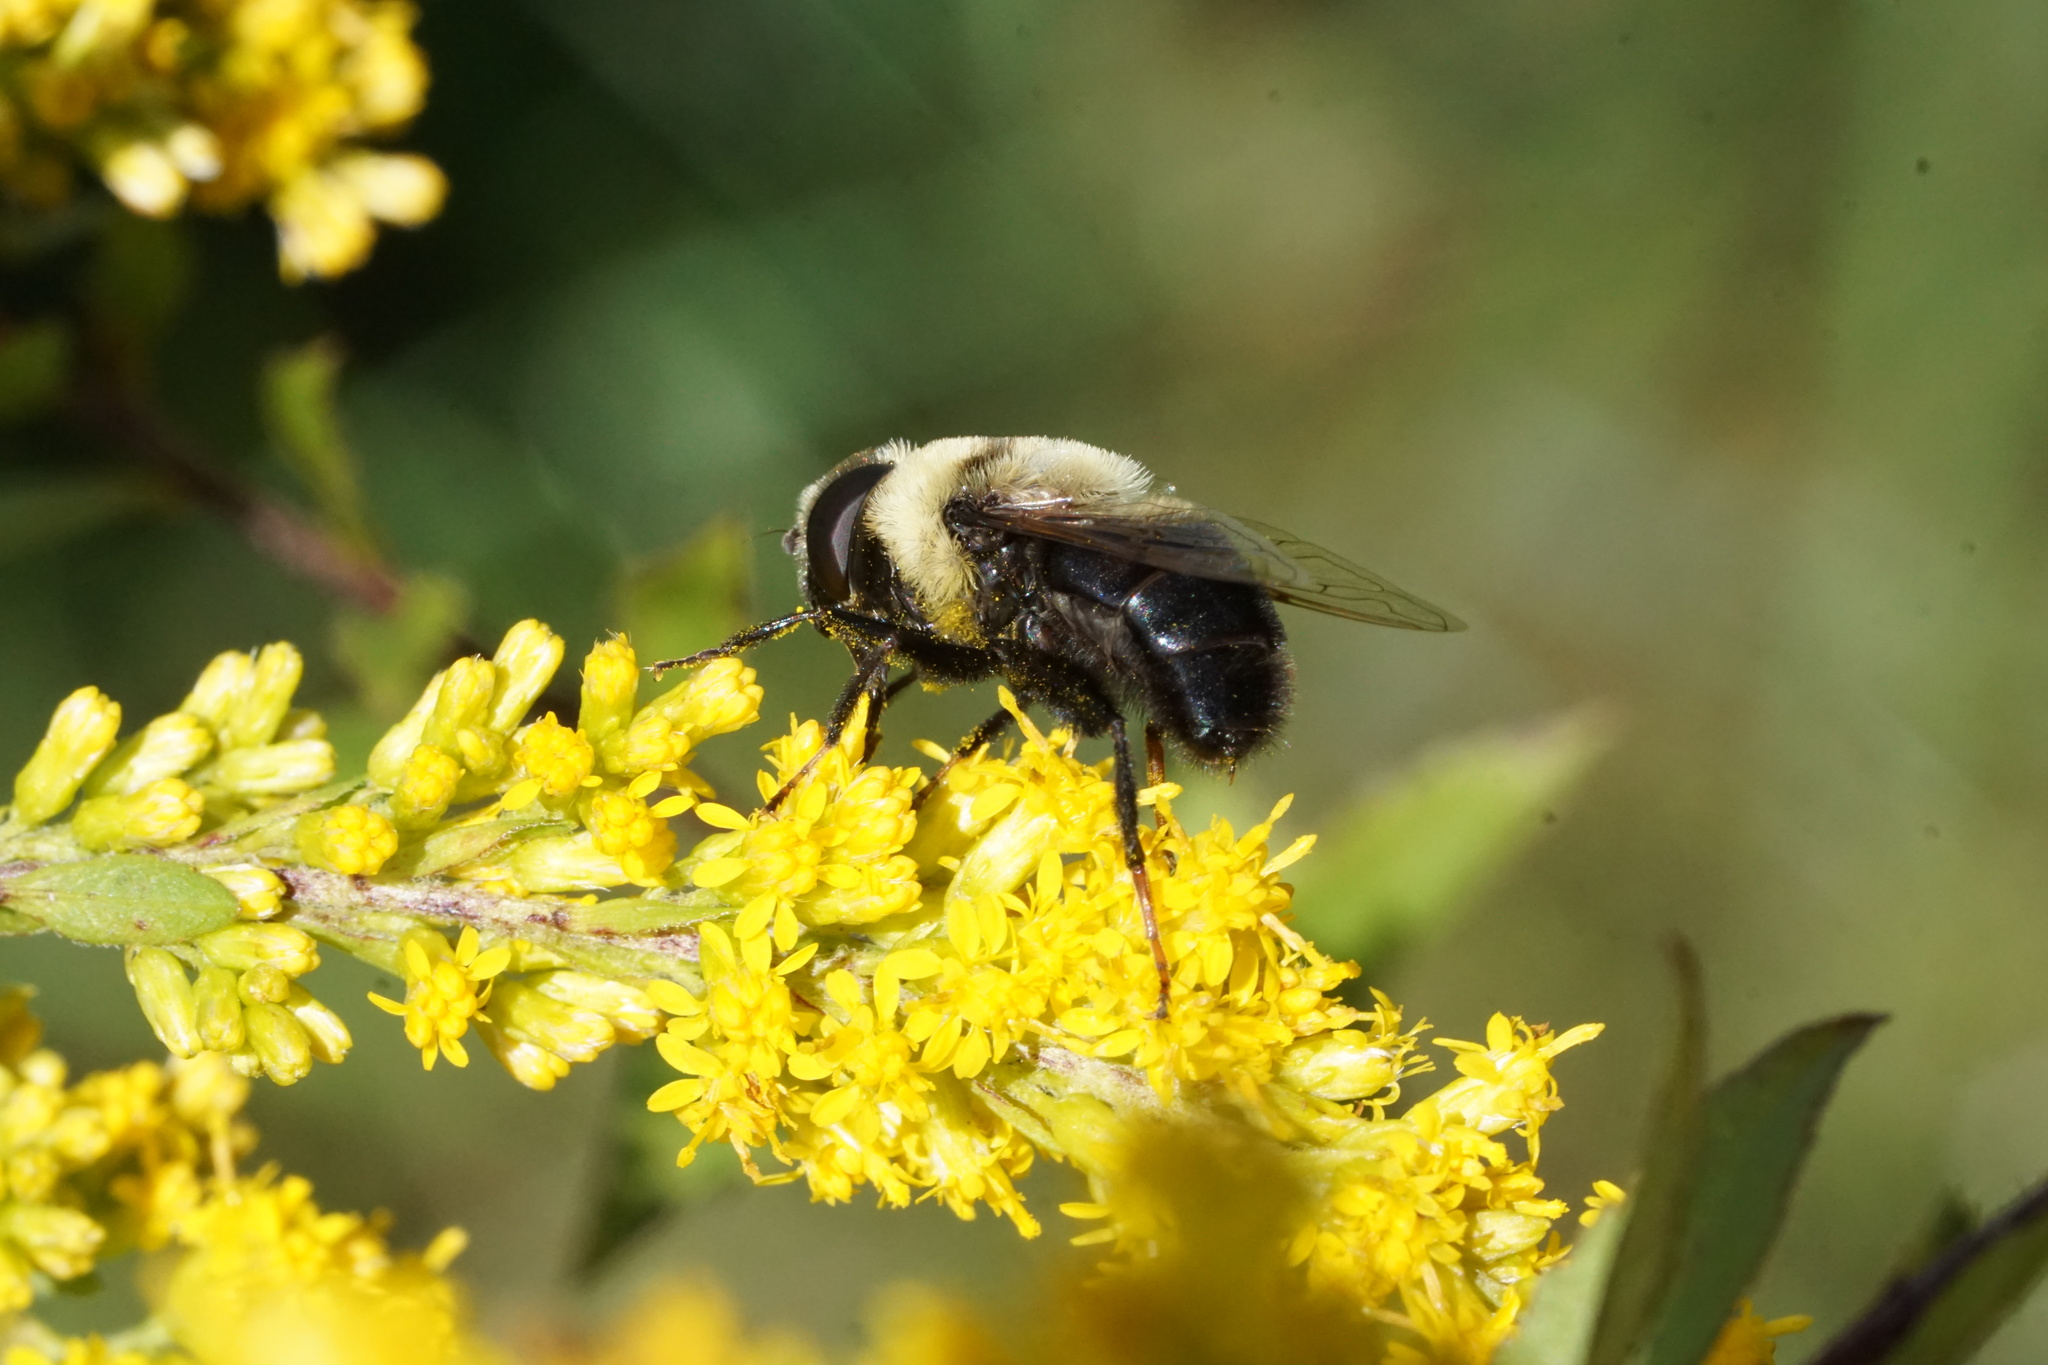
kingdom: Animalia
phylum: Arthropoda
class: Insecta
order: Diptera
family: Syrphidae
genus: Eristalis
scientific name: Eristalis flavipes
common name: Orange-legged drone fly
